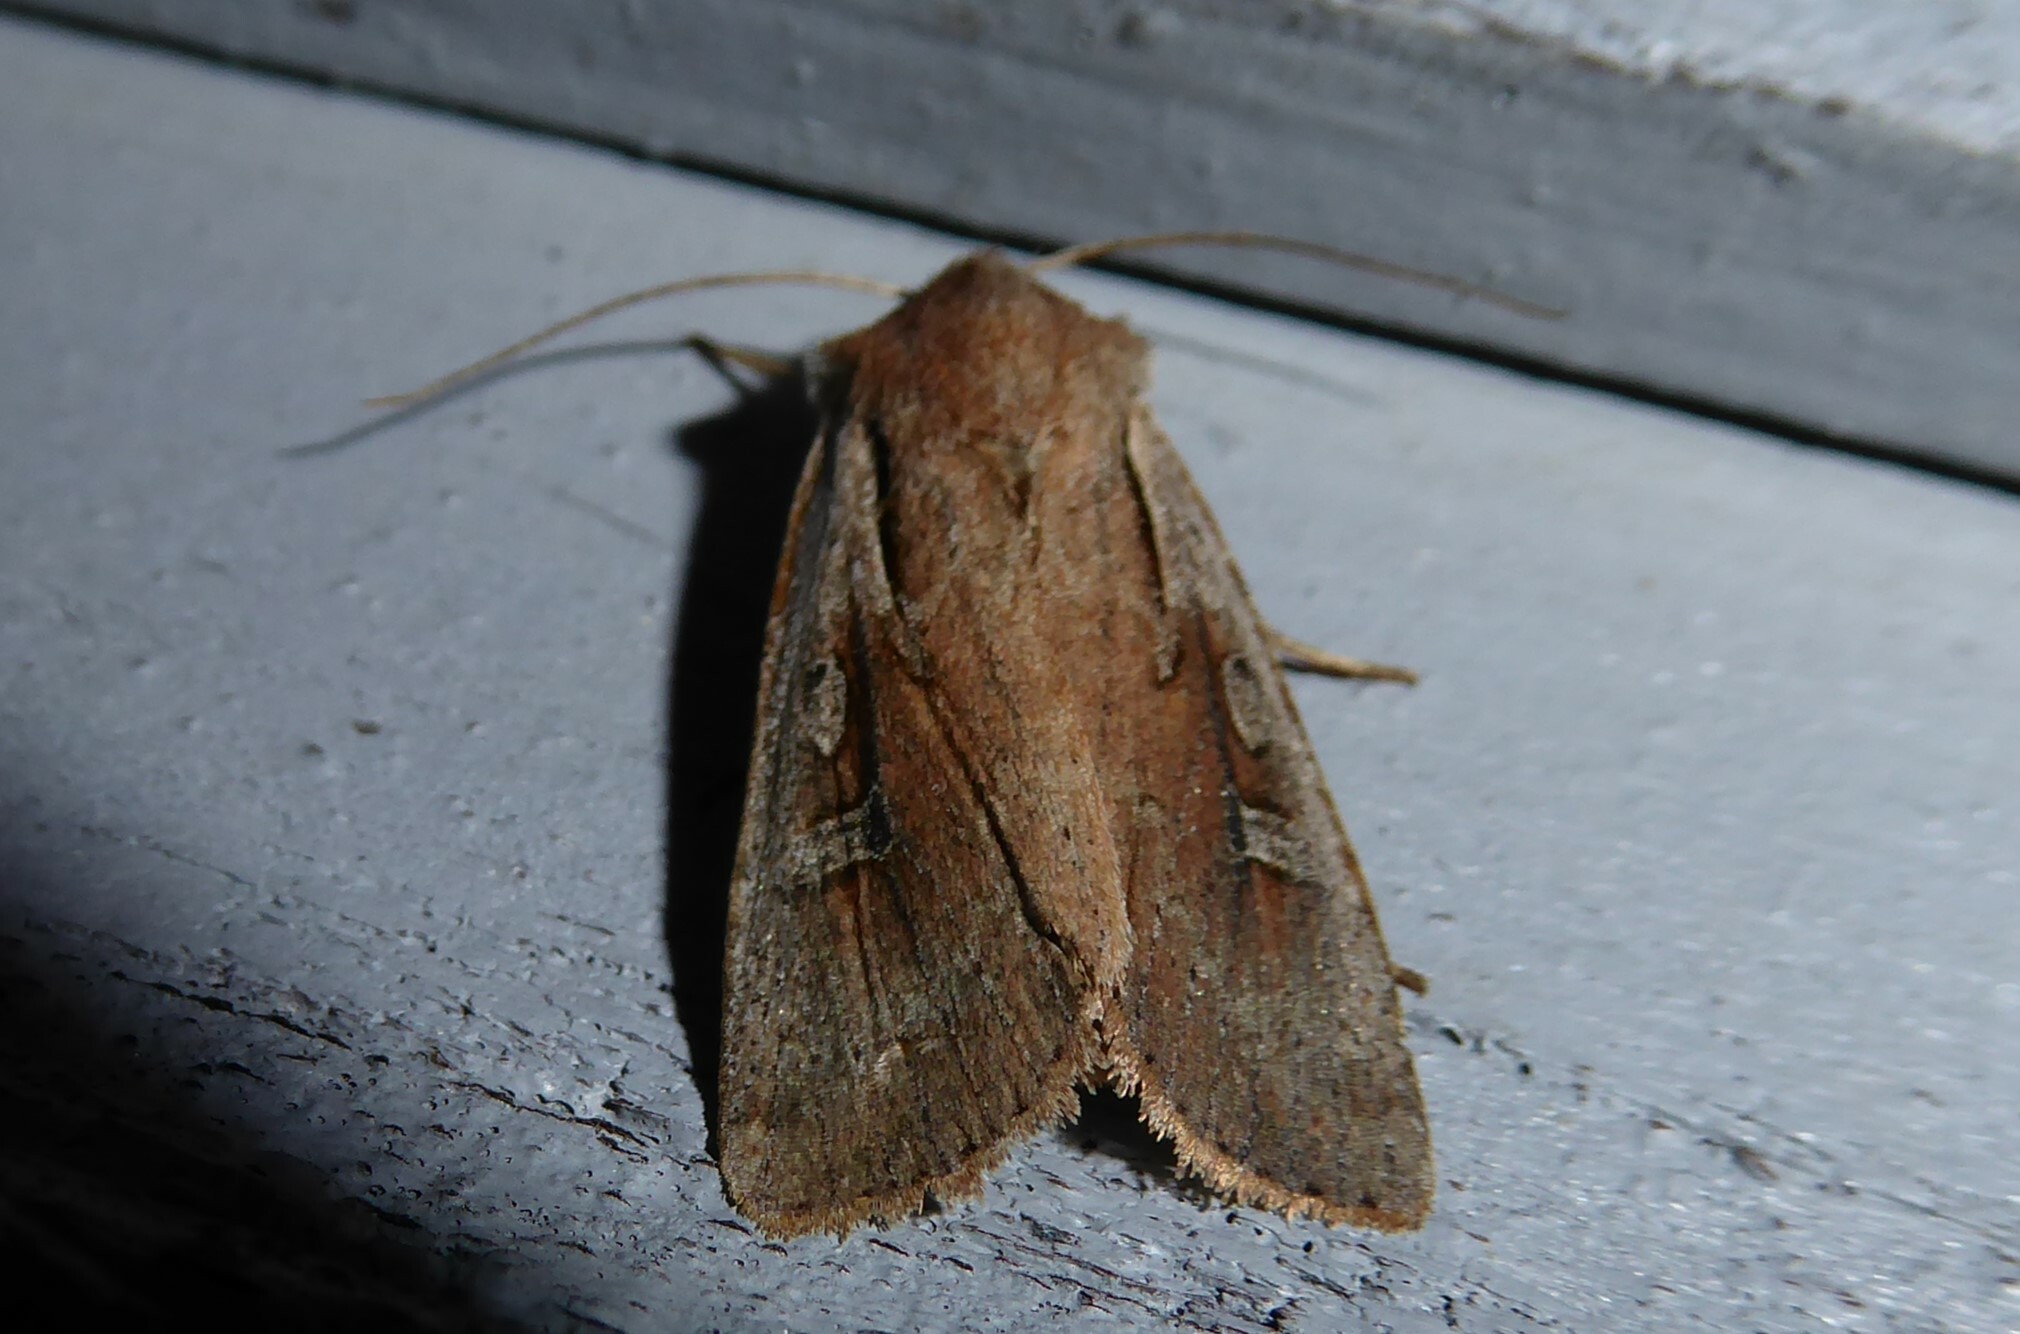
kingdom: Animalia
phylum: Arthropoda
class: Insecta
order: Lepidoptera
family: Noctuidae
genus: Ichneutica
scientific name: Ichneutica atristriga
